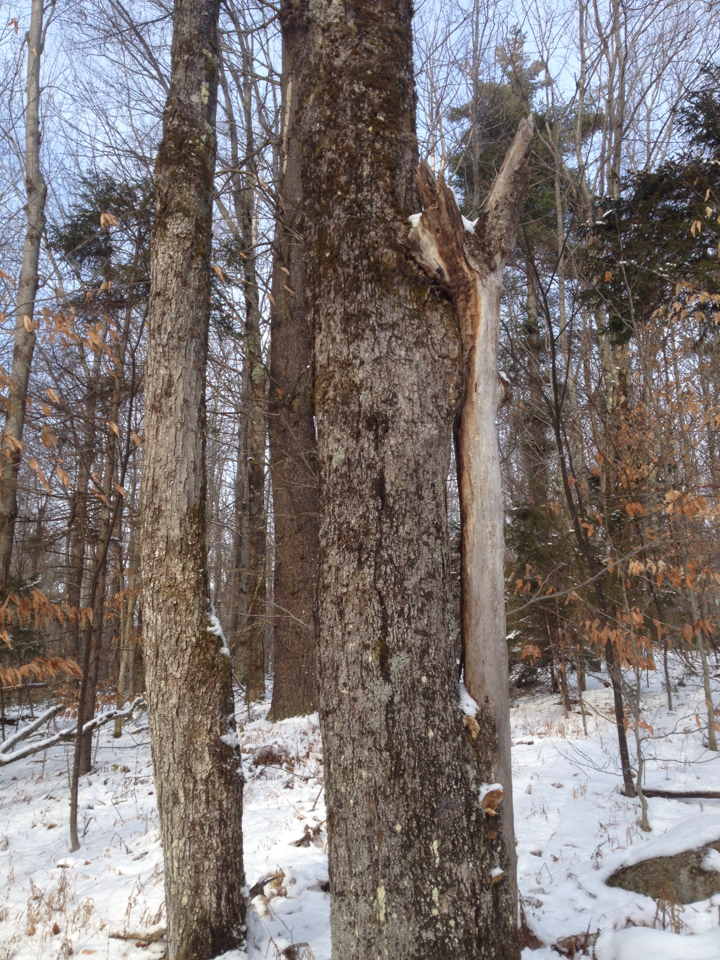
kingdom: Plantae
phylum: Tracheophyta
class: Magnoliopsida
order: Sapindales
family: Sapindaceae
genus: Acer
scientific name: Acer saccharum
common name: Sugar maple
